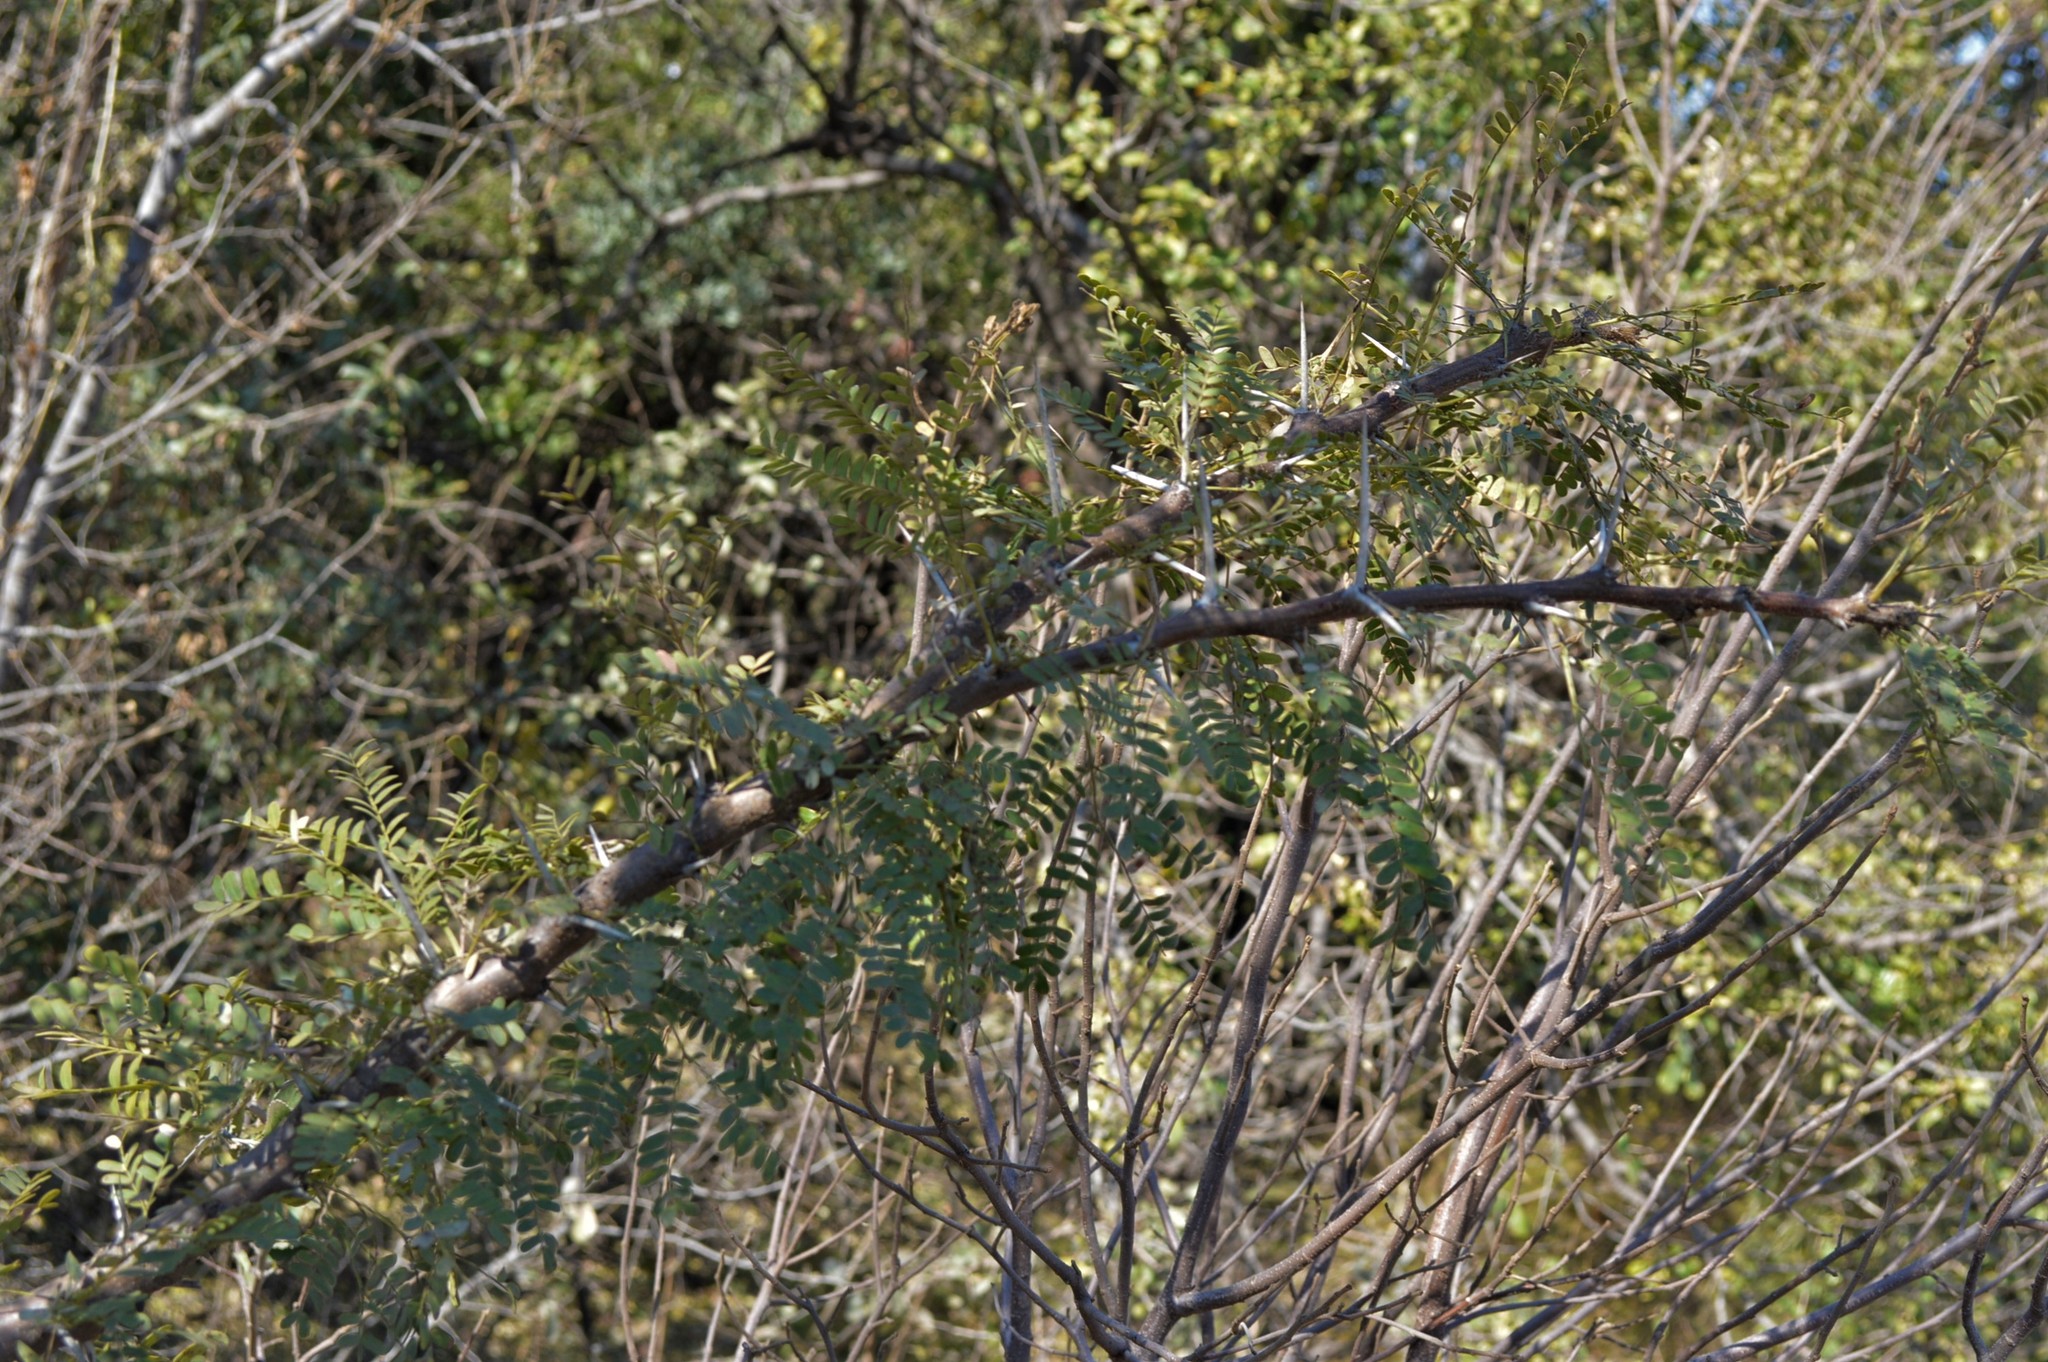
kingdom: Plantae
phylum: Tracheophyta
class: Magnoliopsida
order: Fabales
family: Fabaceae
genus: Vachellia
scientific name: Vachellia karroo
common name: Sweet thorn
